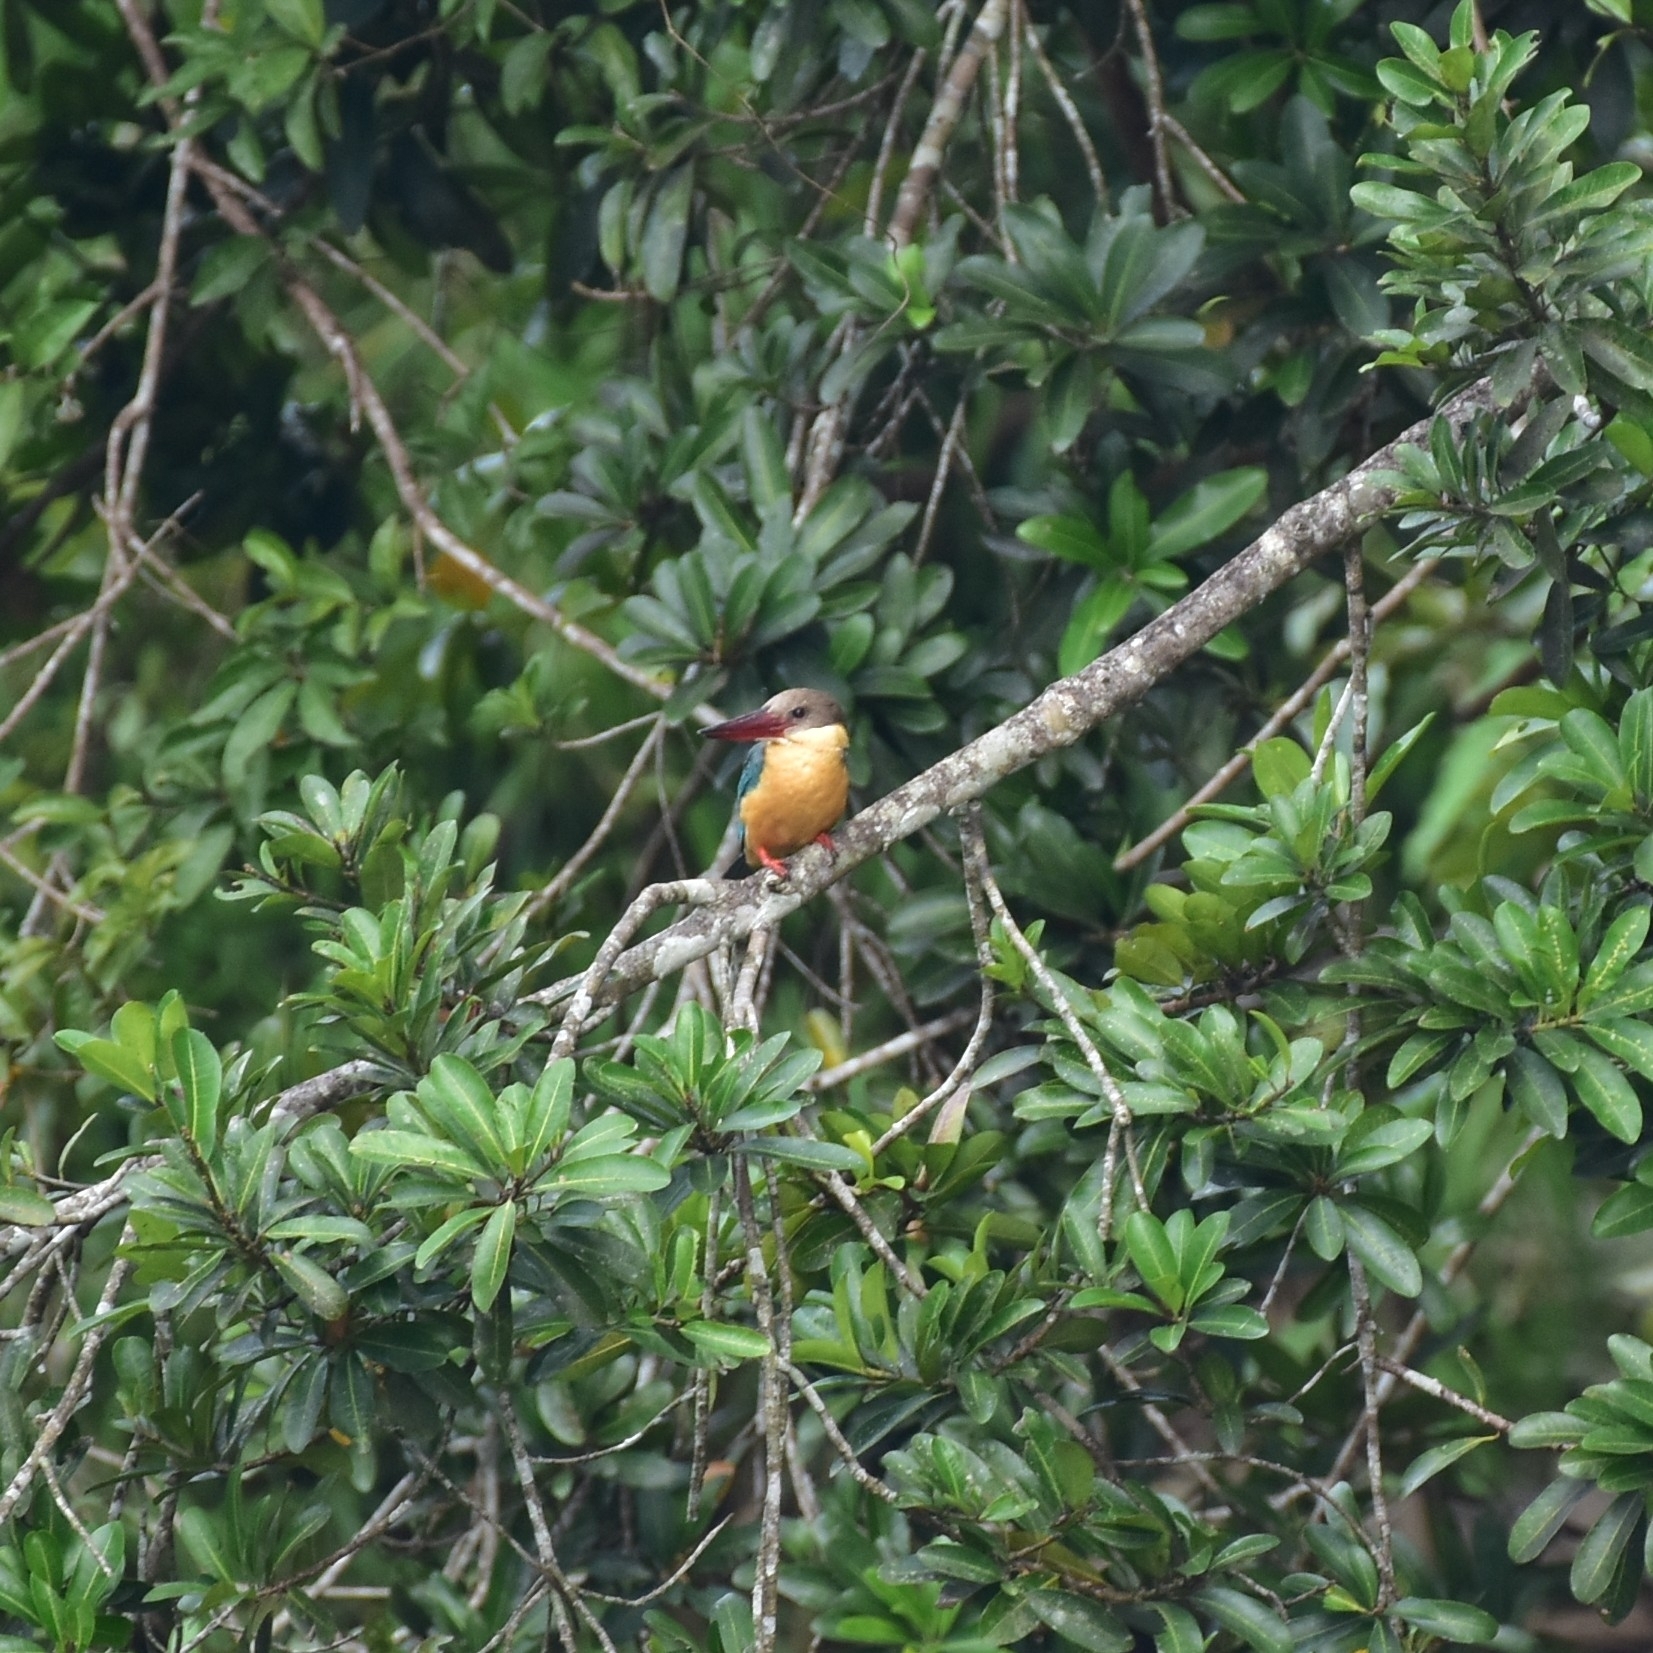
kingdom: Animalia
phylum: Chordata
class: Aves
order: Coraciiformes
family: Alcedinidae
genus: Pelargopsis
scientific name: Pelargopsis capensis
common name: Stork-billed kingfisher
